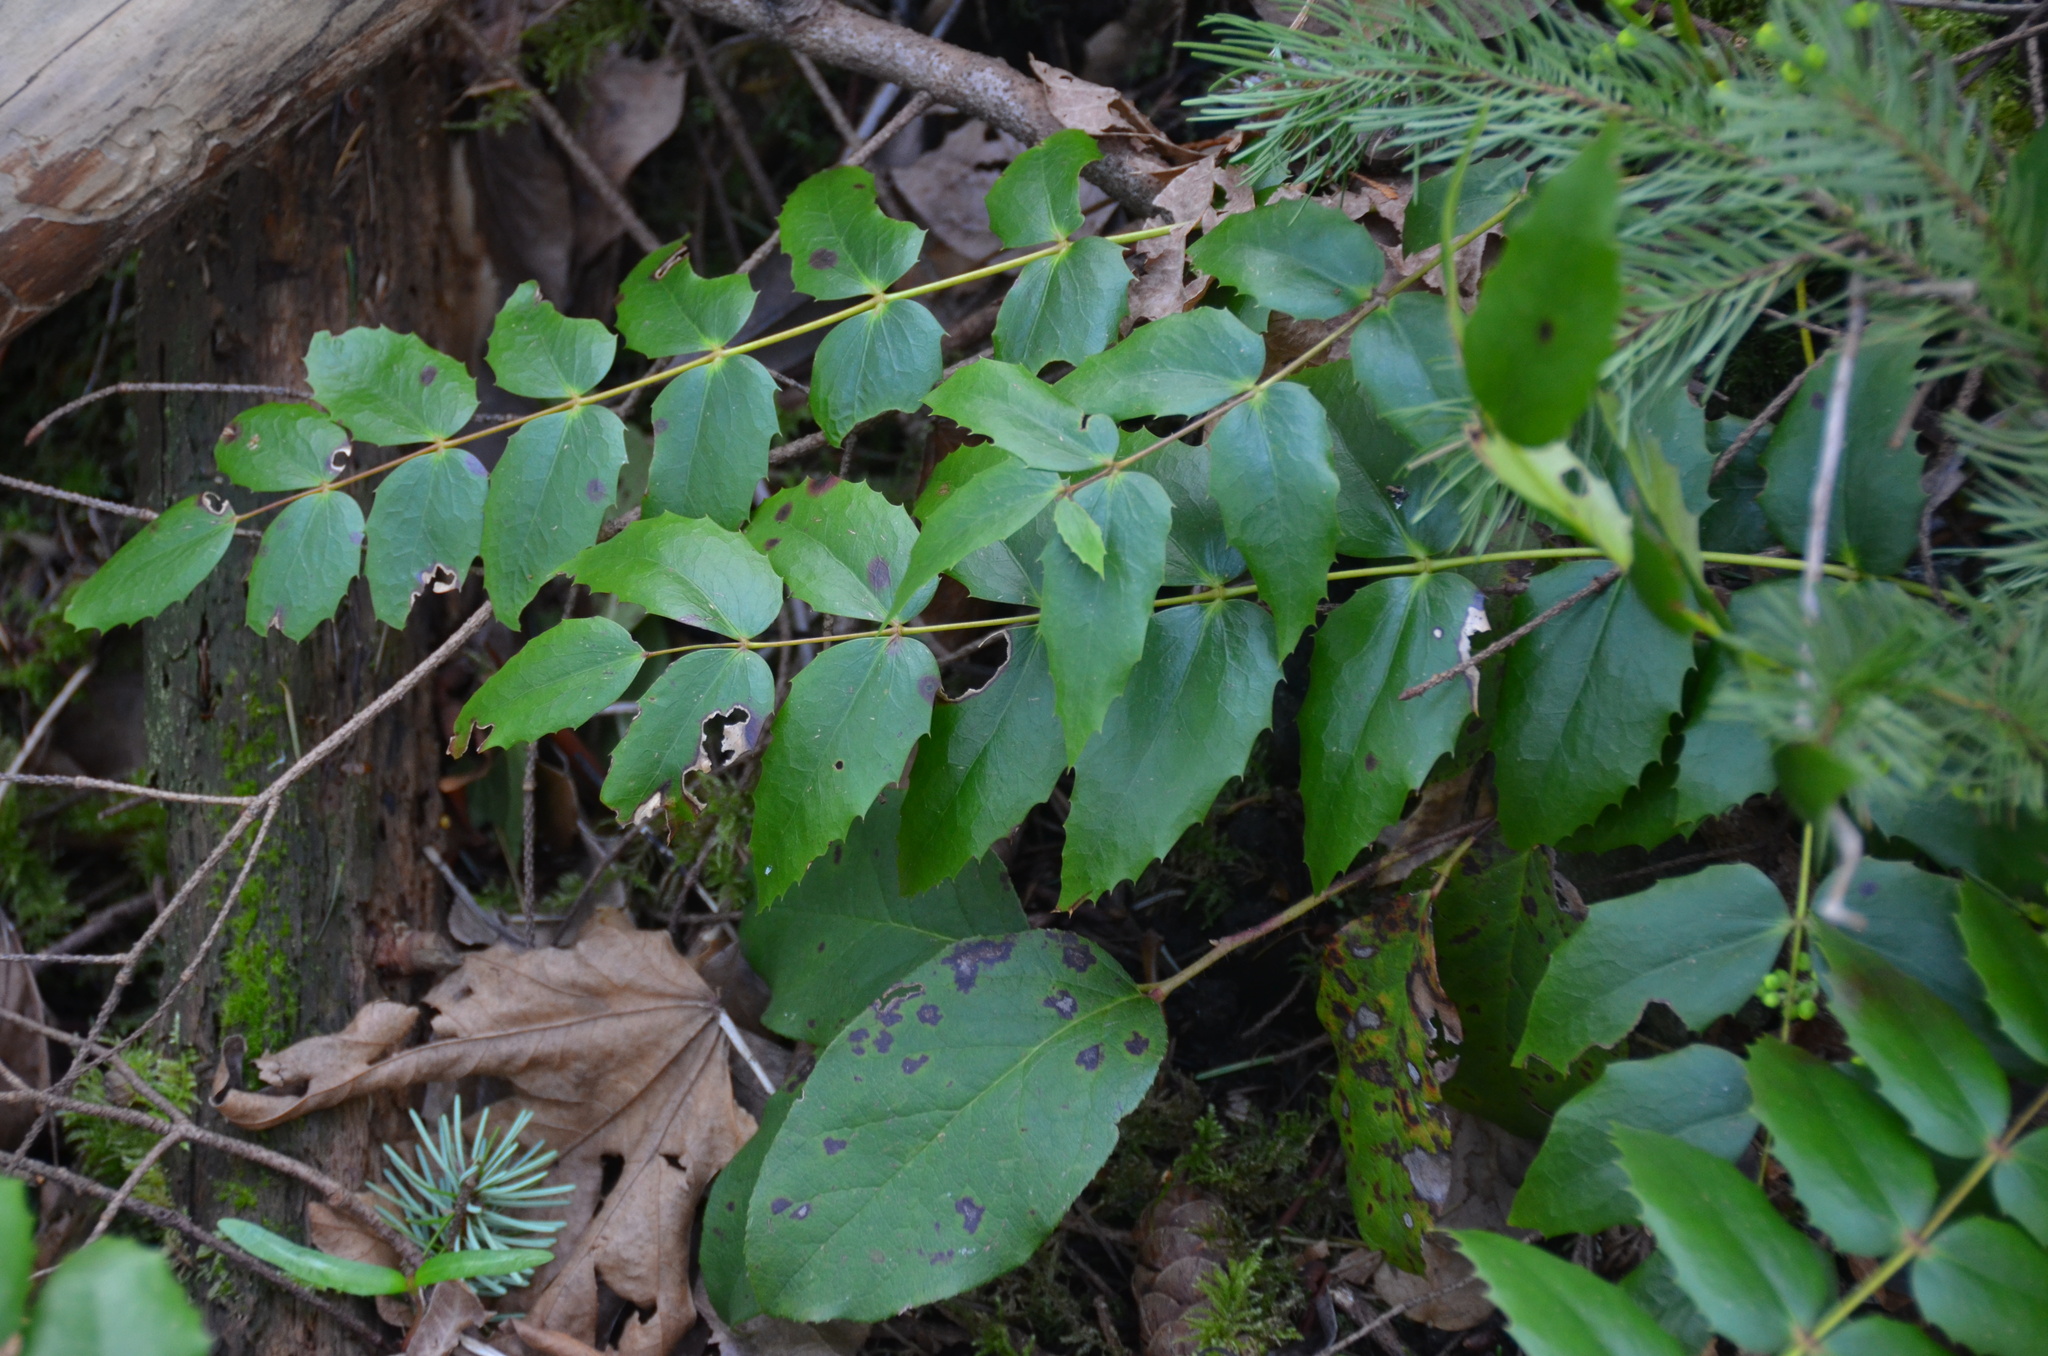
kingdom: Plantae
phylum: Tracheophyta
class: Magnoliopsida
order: Ranunculales
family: Berberidaceae
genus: Mahonia
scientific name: Mahonia nervosa
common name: Cascade oregon-grape
